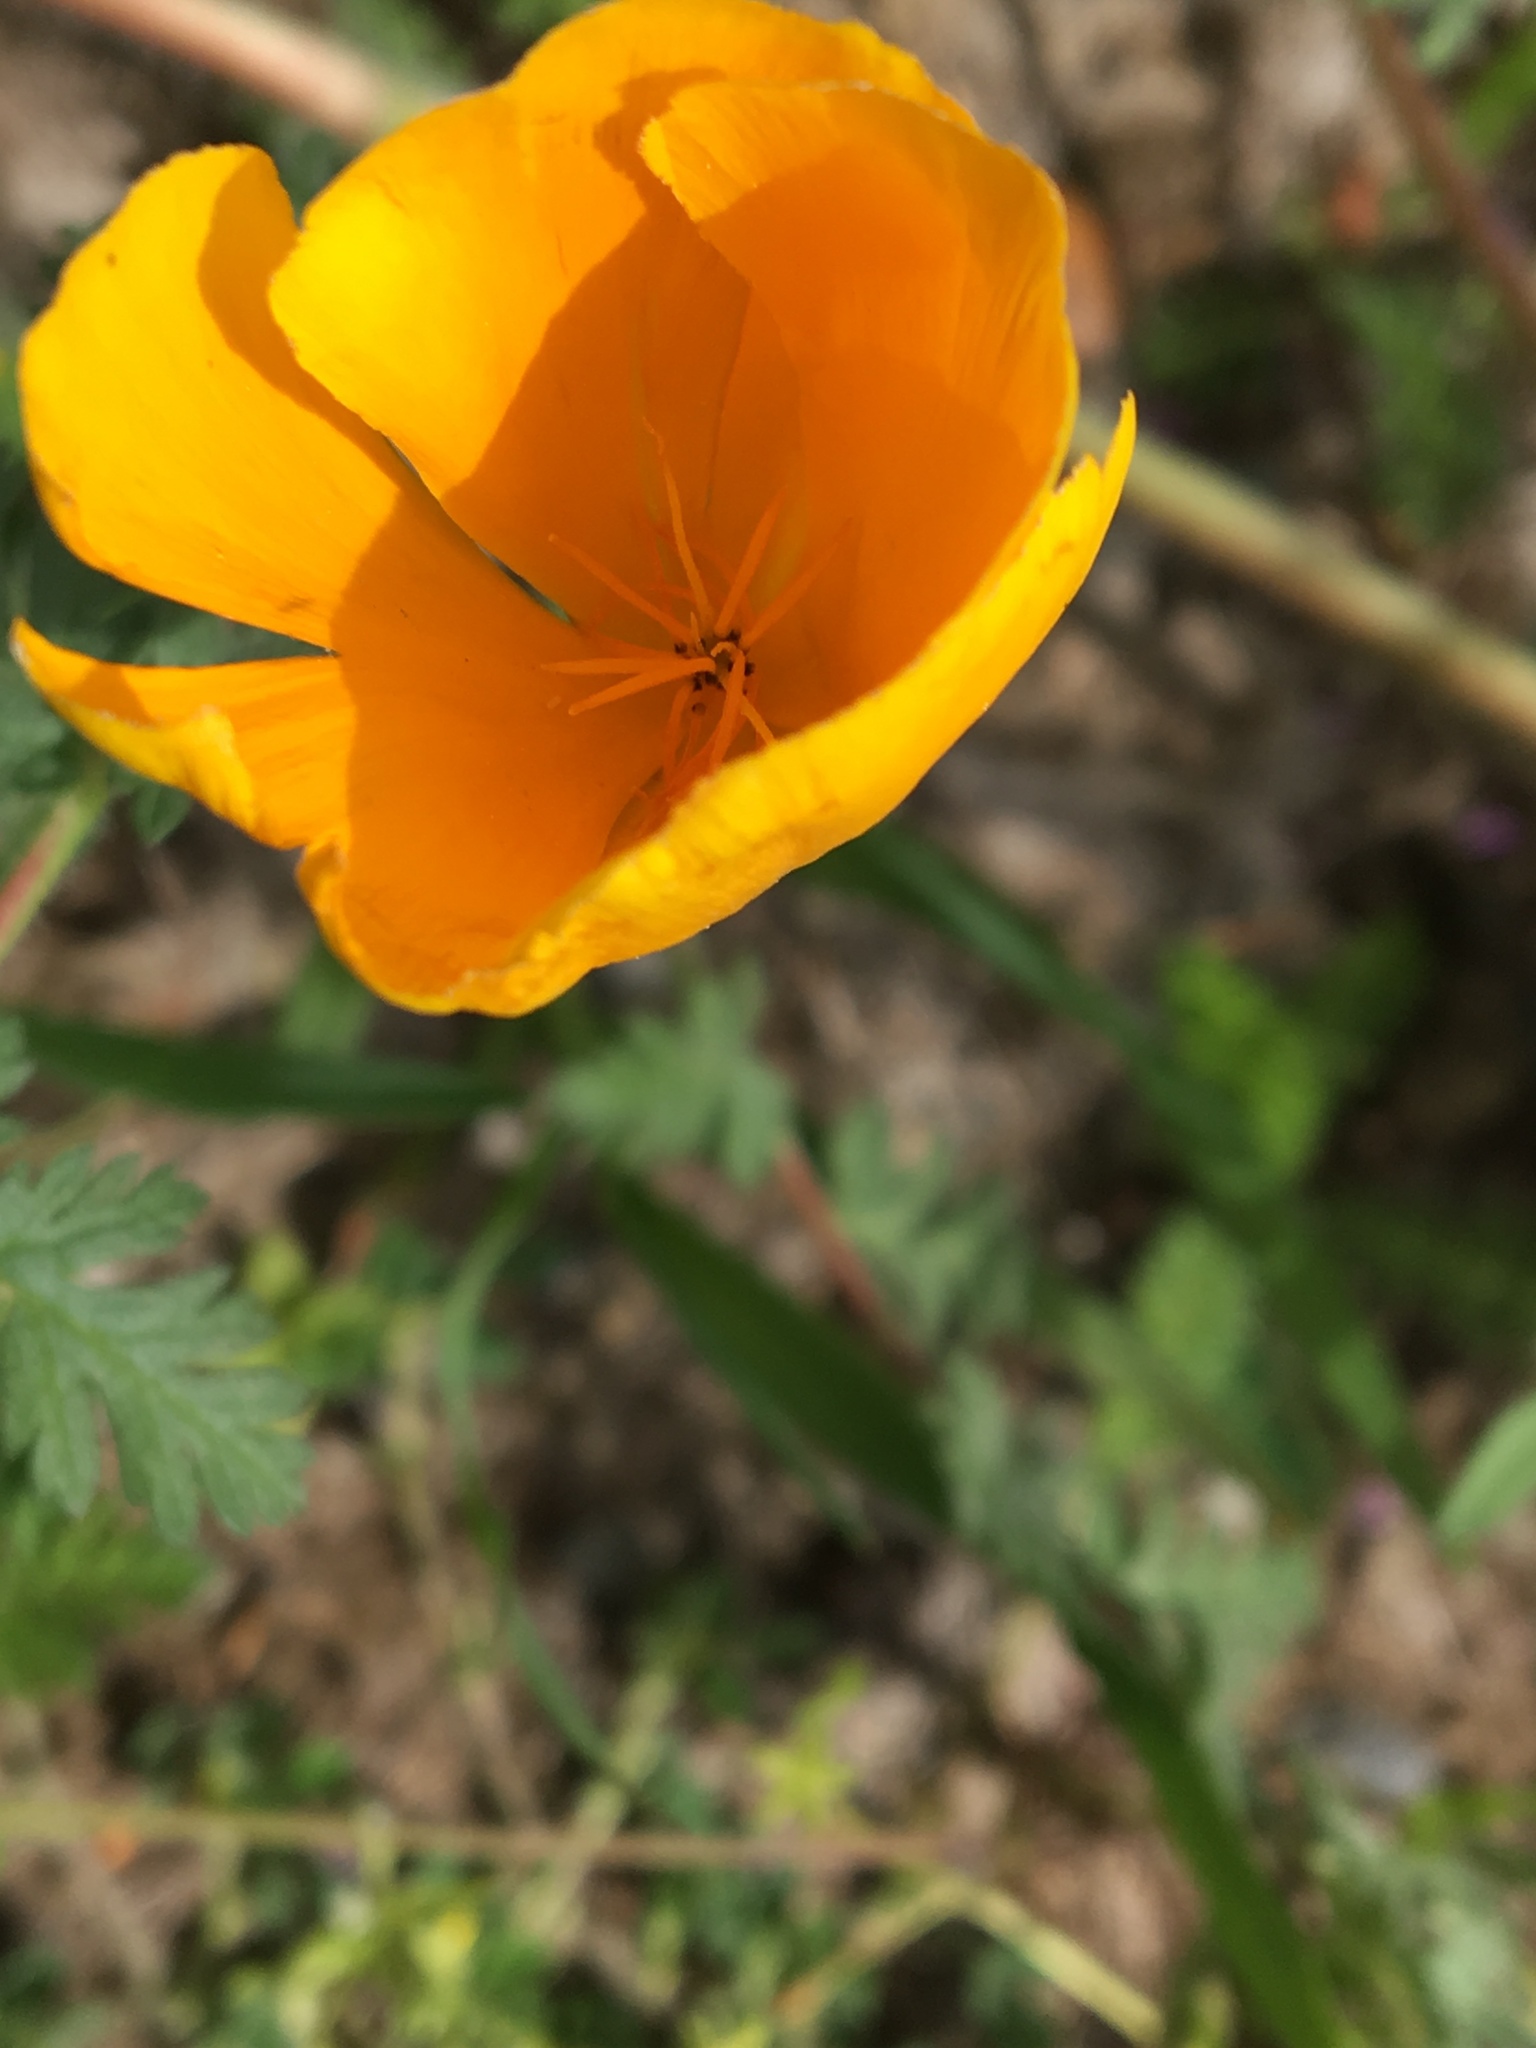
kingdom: Plantae
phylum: Tracheophyta
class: Magnoliopsida
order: Ranunculales
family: Papaveraceae
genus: Eschscholzia
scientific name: Eschscholzia californica
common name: California poppy
